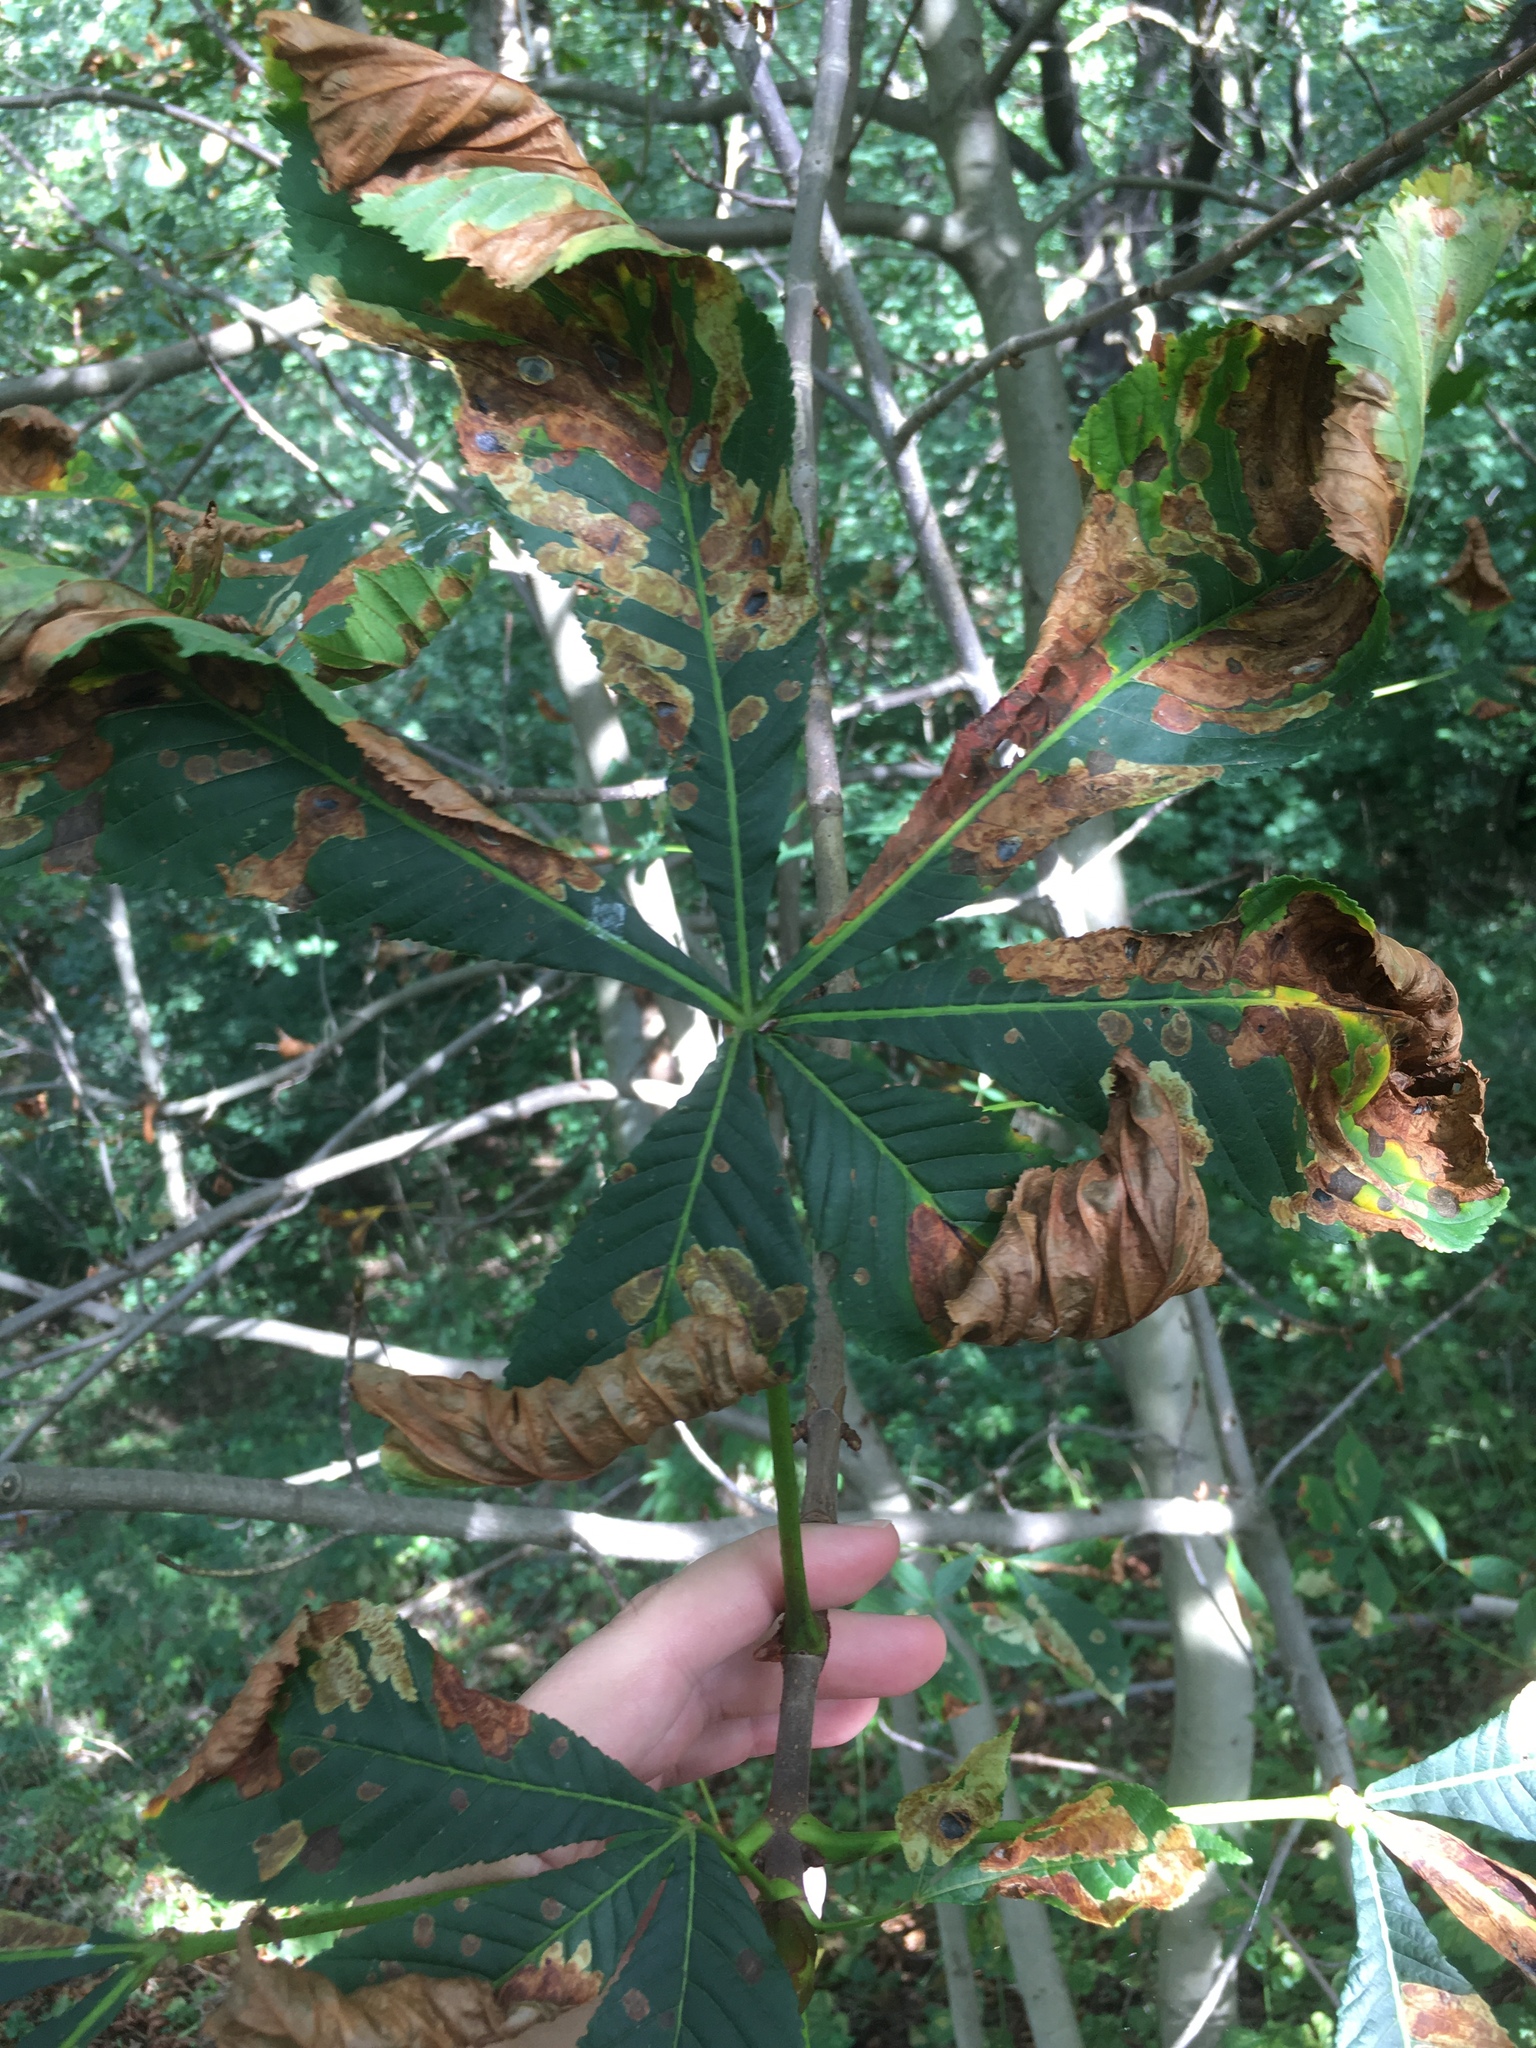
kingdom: Plantae
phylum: Tracheophyta
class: Magnoliopsida
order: Sapindales
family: Sapindaceae
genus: Aesculus
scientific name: Aesculus hippocastanum
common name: Horse-chestnut
